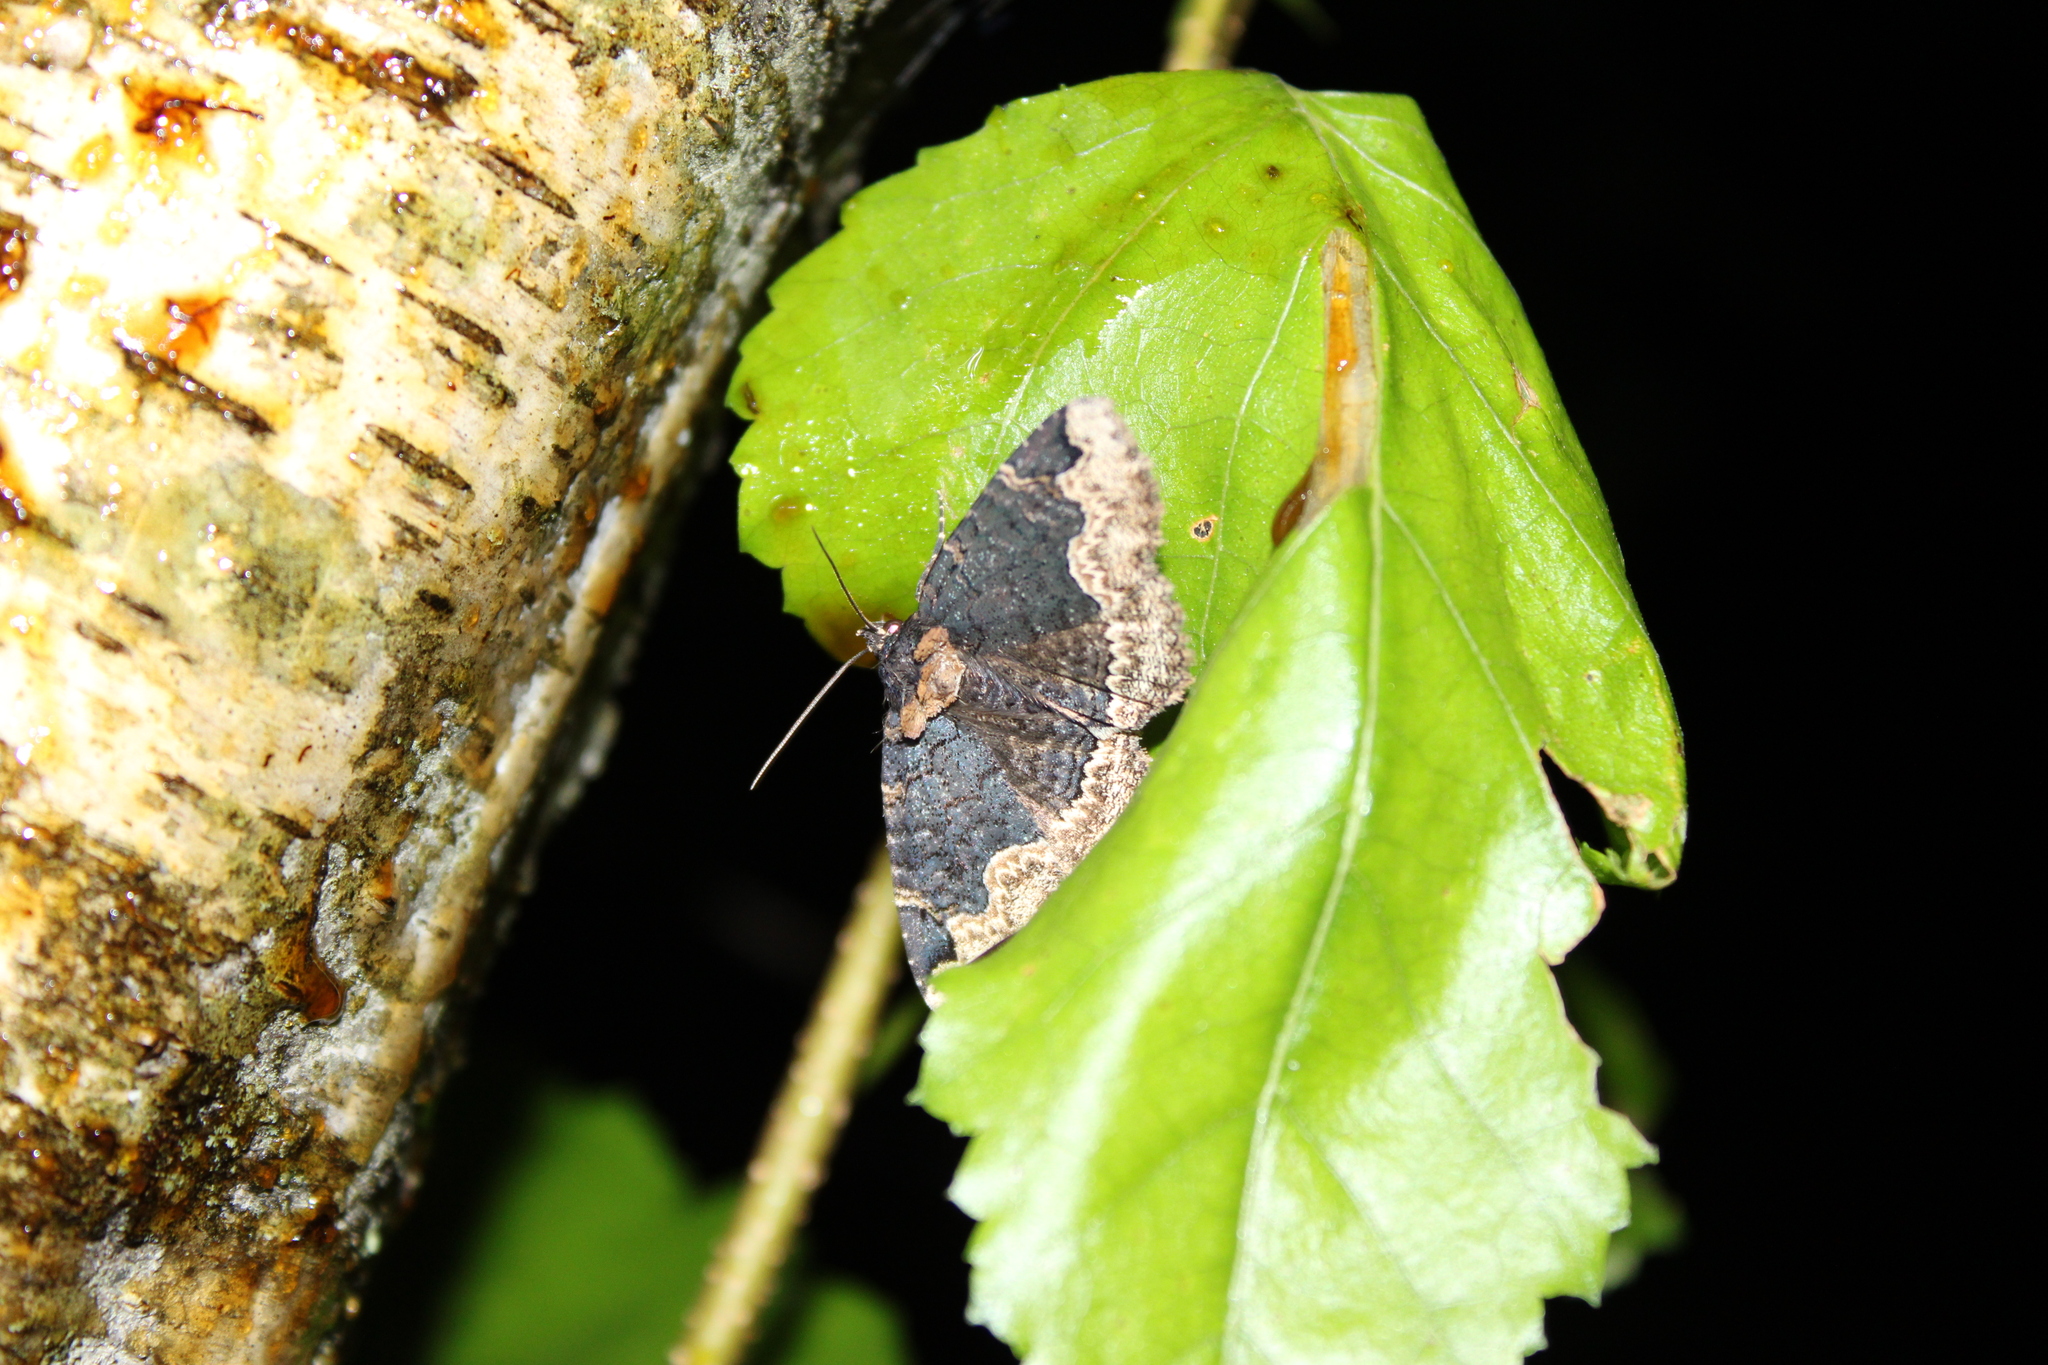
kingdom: Animalia
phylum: Arthropoda
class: Insecta
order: Lepidoptera
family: Erebidae
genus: Zale
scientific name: Zale horrida
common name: Horrid zale moth
